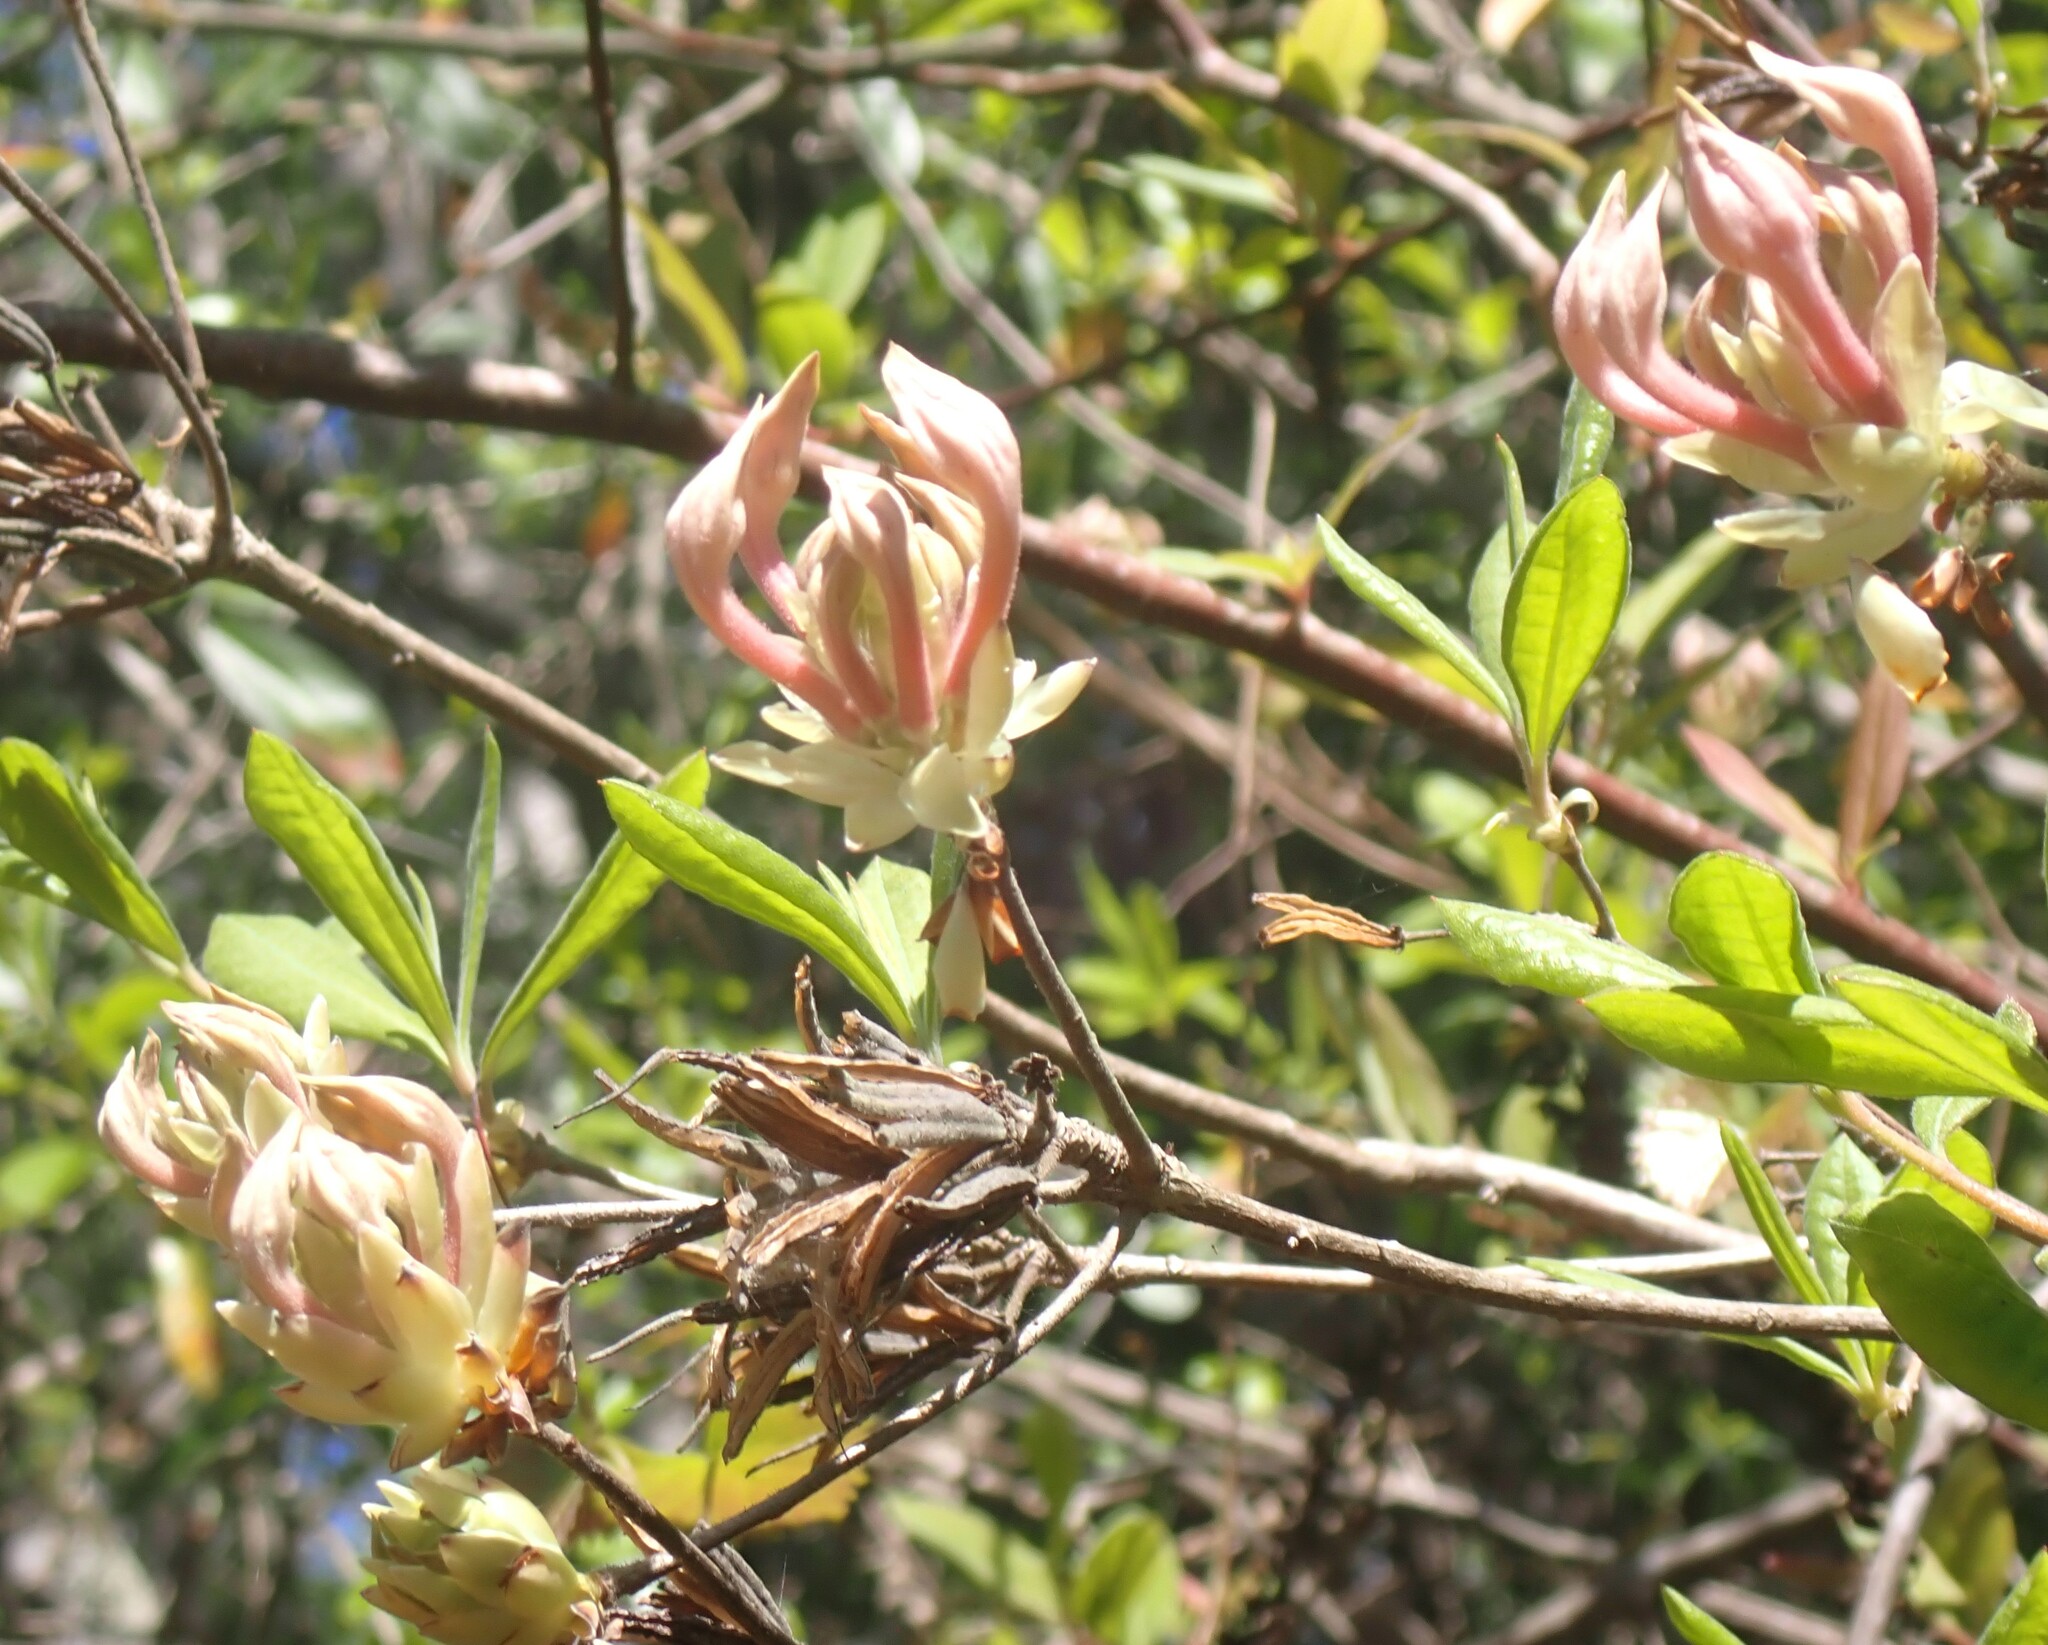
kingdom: Plantae
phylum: Tracheophyta
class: Magnoliopsida
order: Ericales
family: Ericaceae
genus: Rhododendron
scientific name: Rhododendron canescens
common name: Mountain azalea
